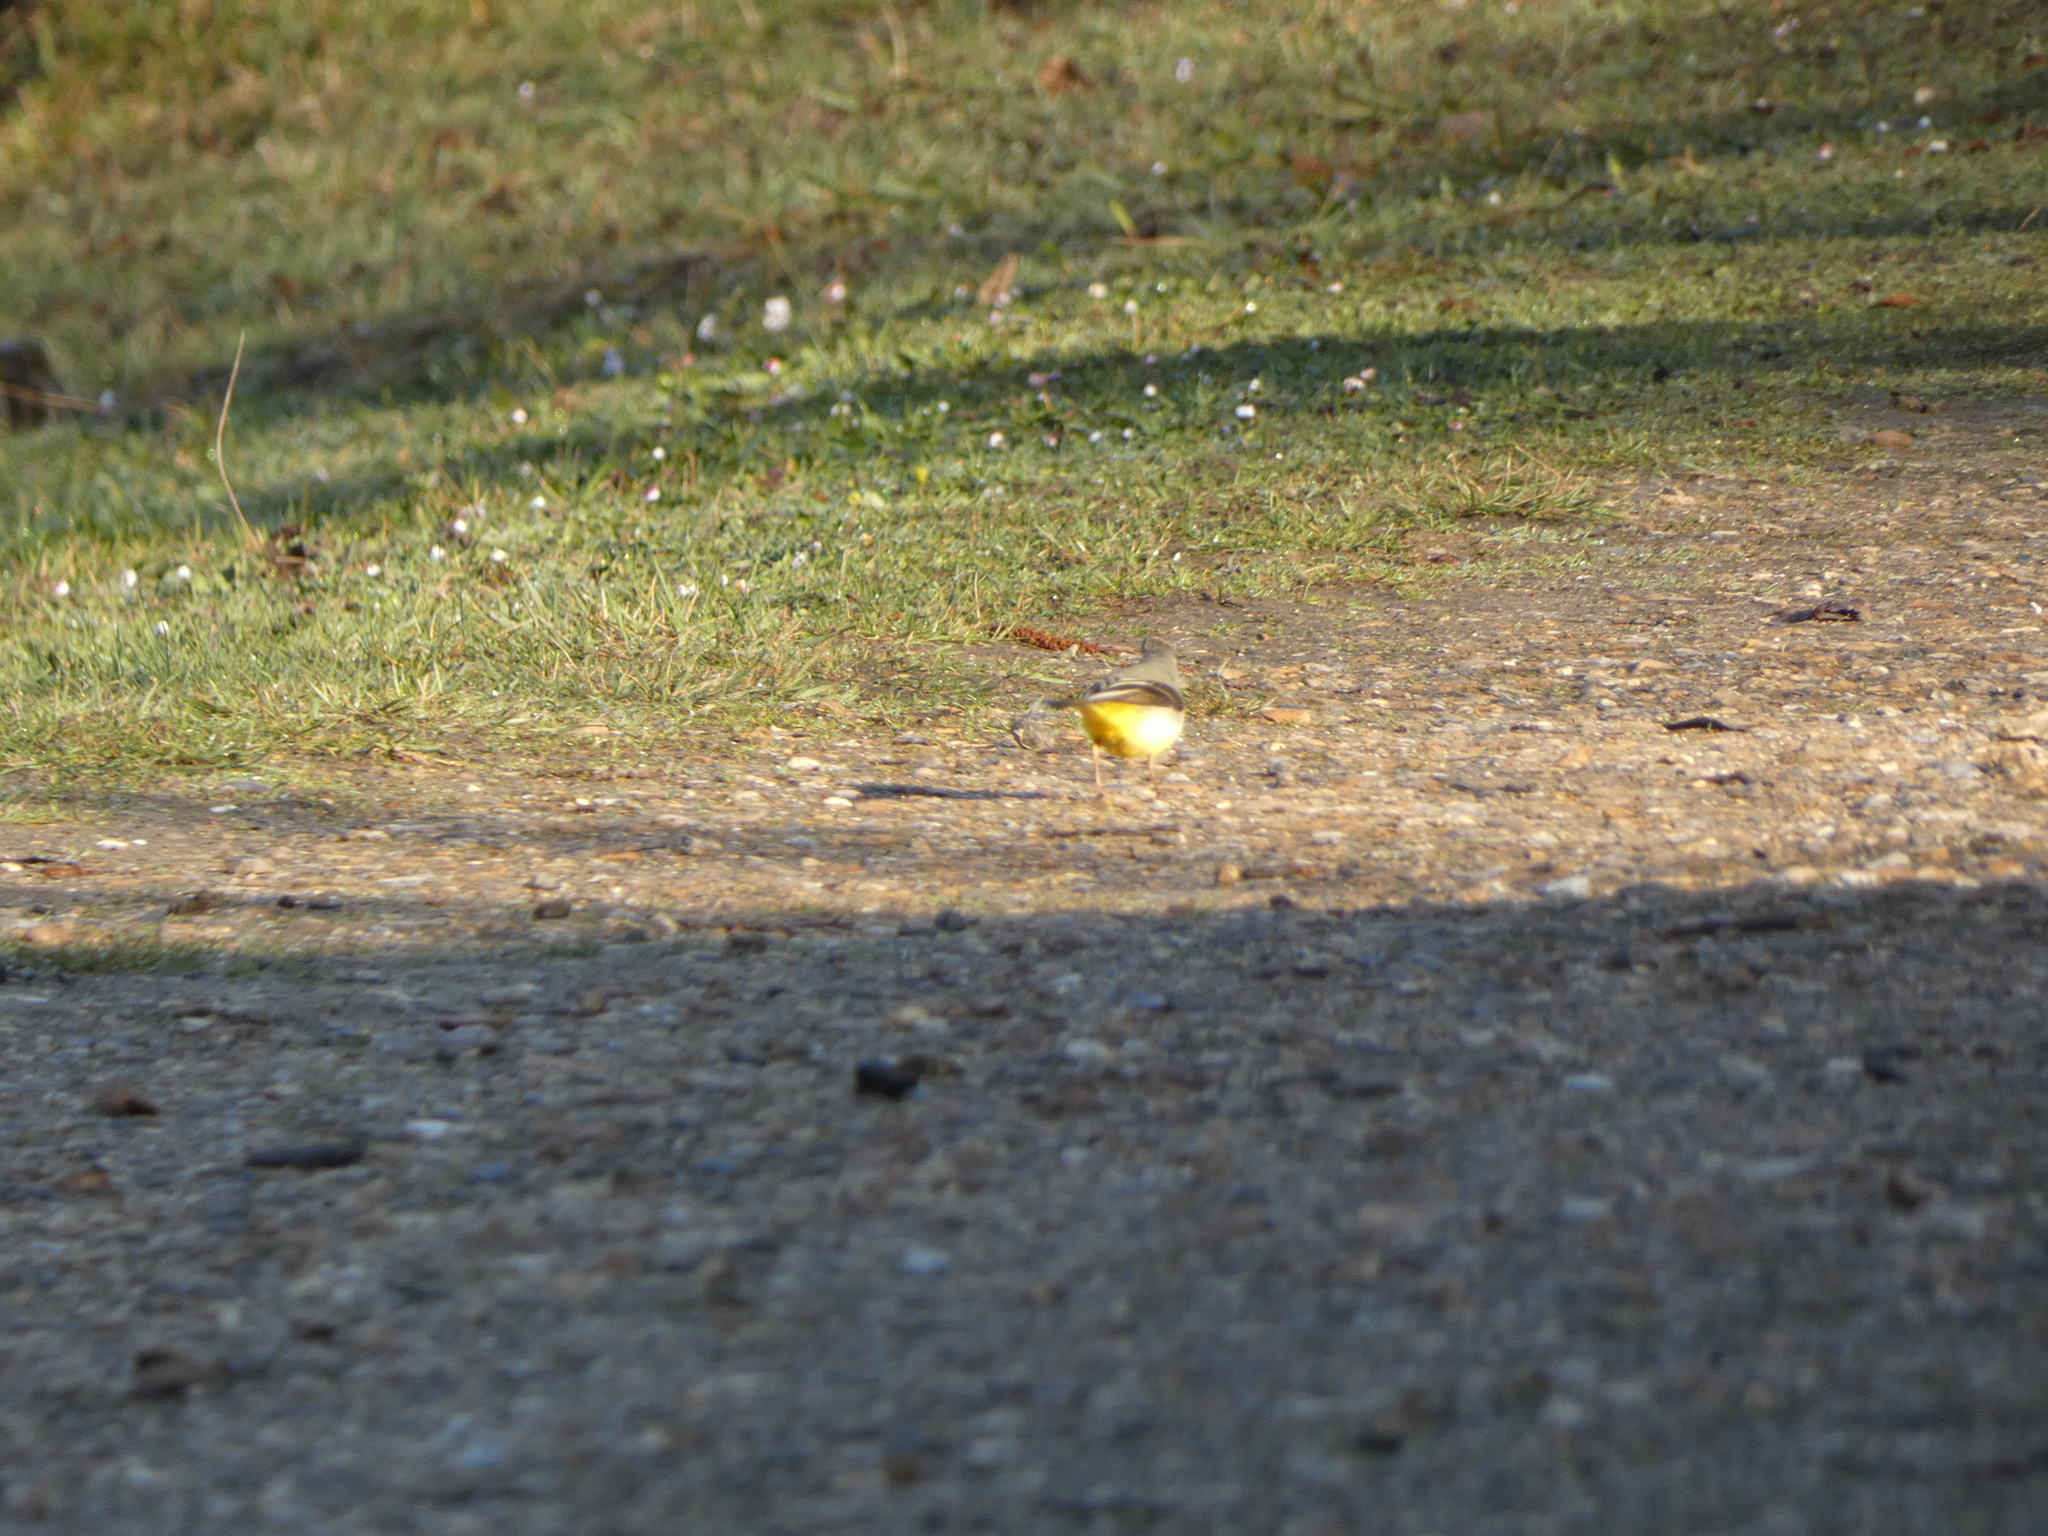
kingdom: Animalia
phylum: Chordata
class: Aves
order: Passeriformes
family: Motacillidae
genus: Motacilla
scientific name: Motacilla cinerea
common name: Grey wagtail
